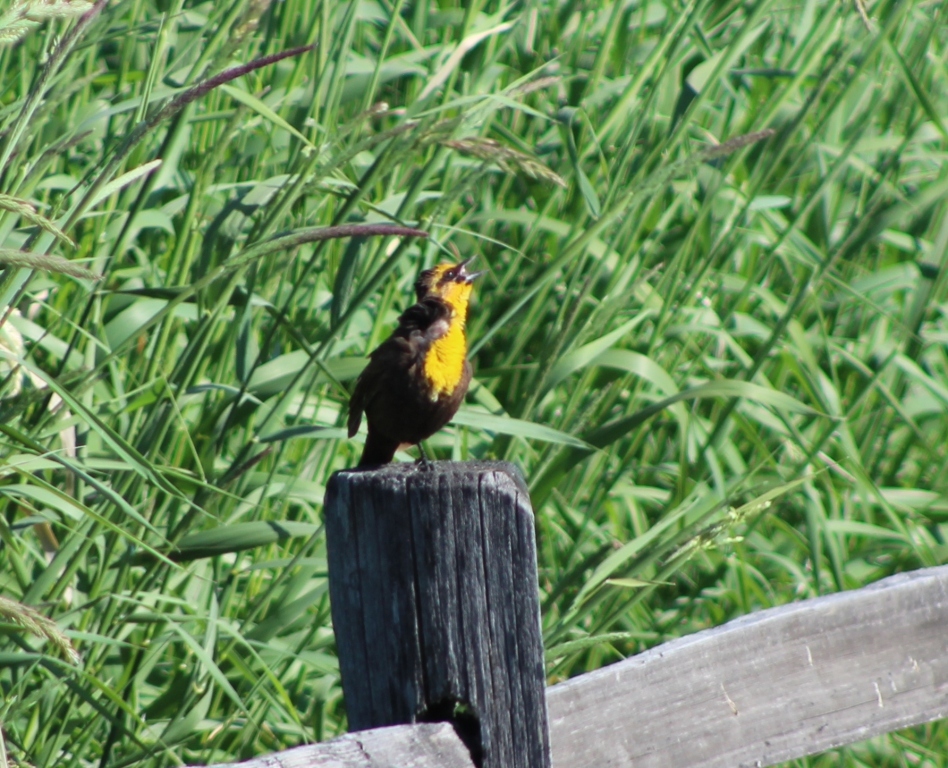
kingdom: Animalia
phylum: Chordata
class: Aves
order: Passeriformes
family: Icteridae
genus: Xanthocephalus
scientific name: Xanthocephalus xanthocephalus
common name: Yellow-headed blackbird
